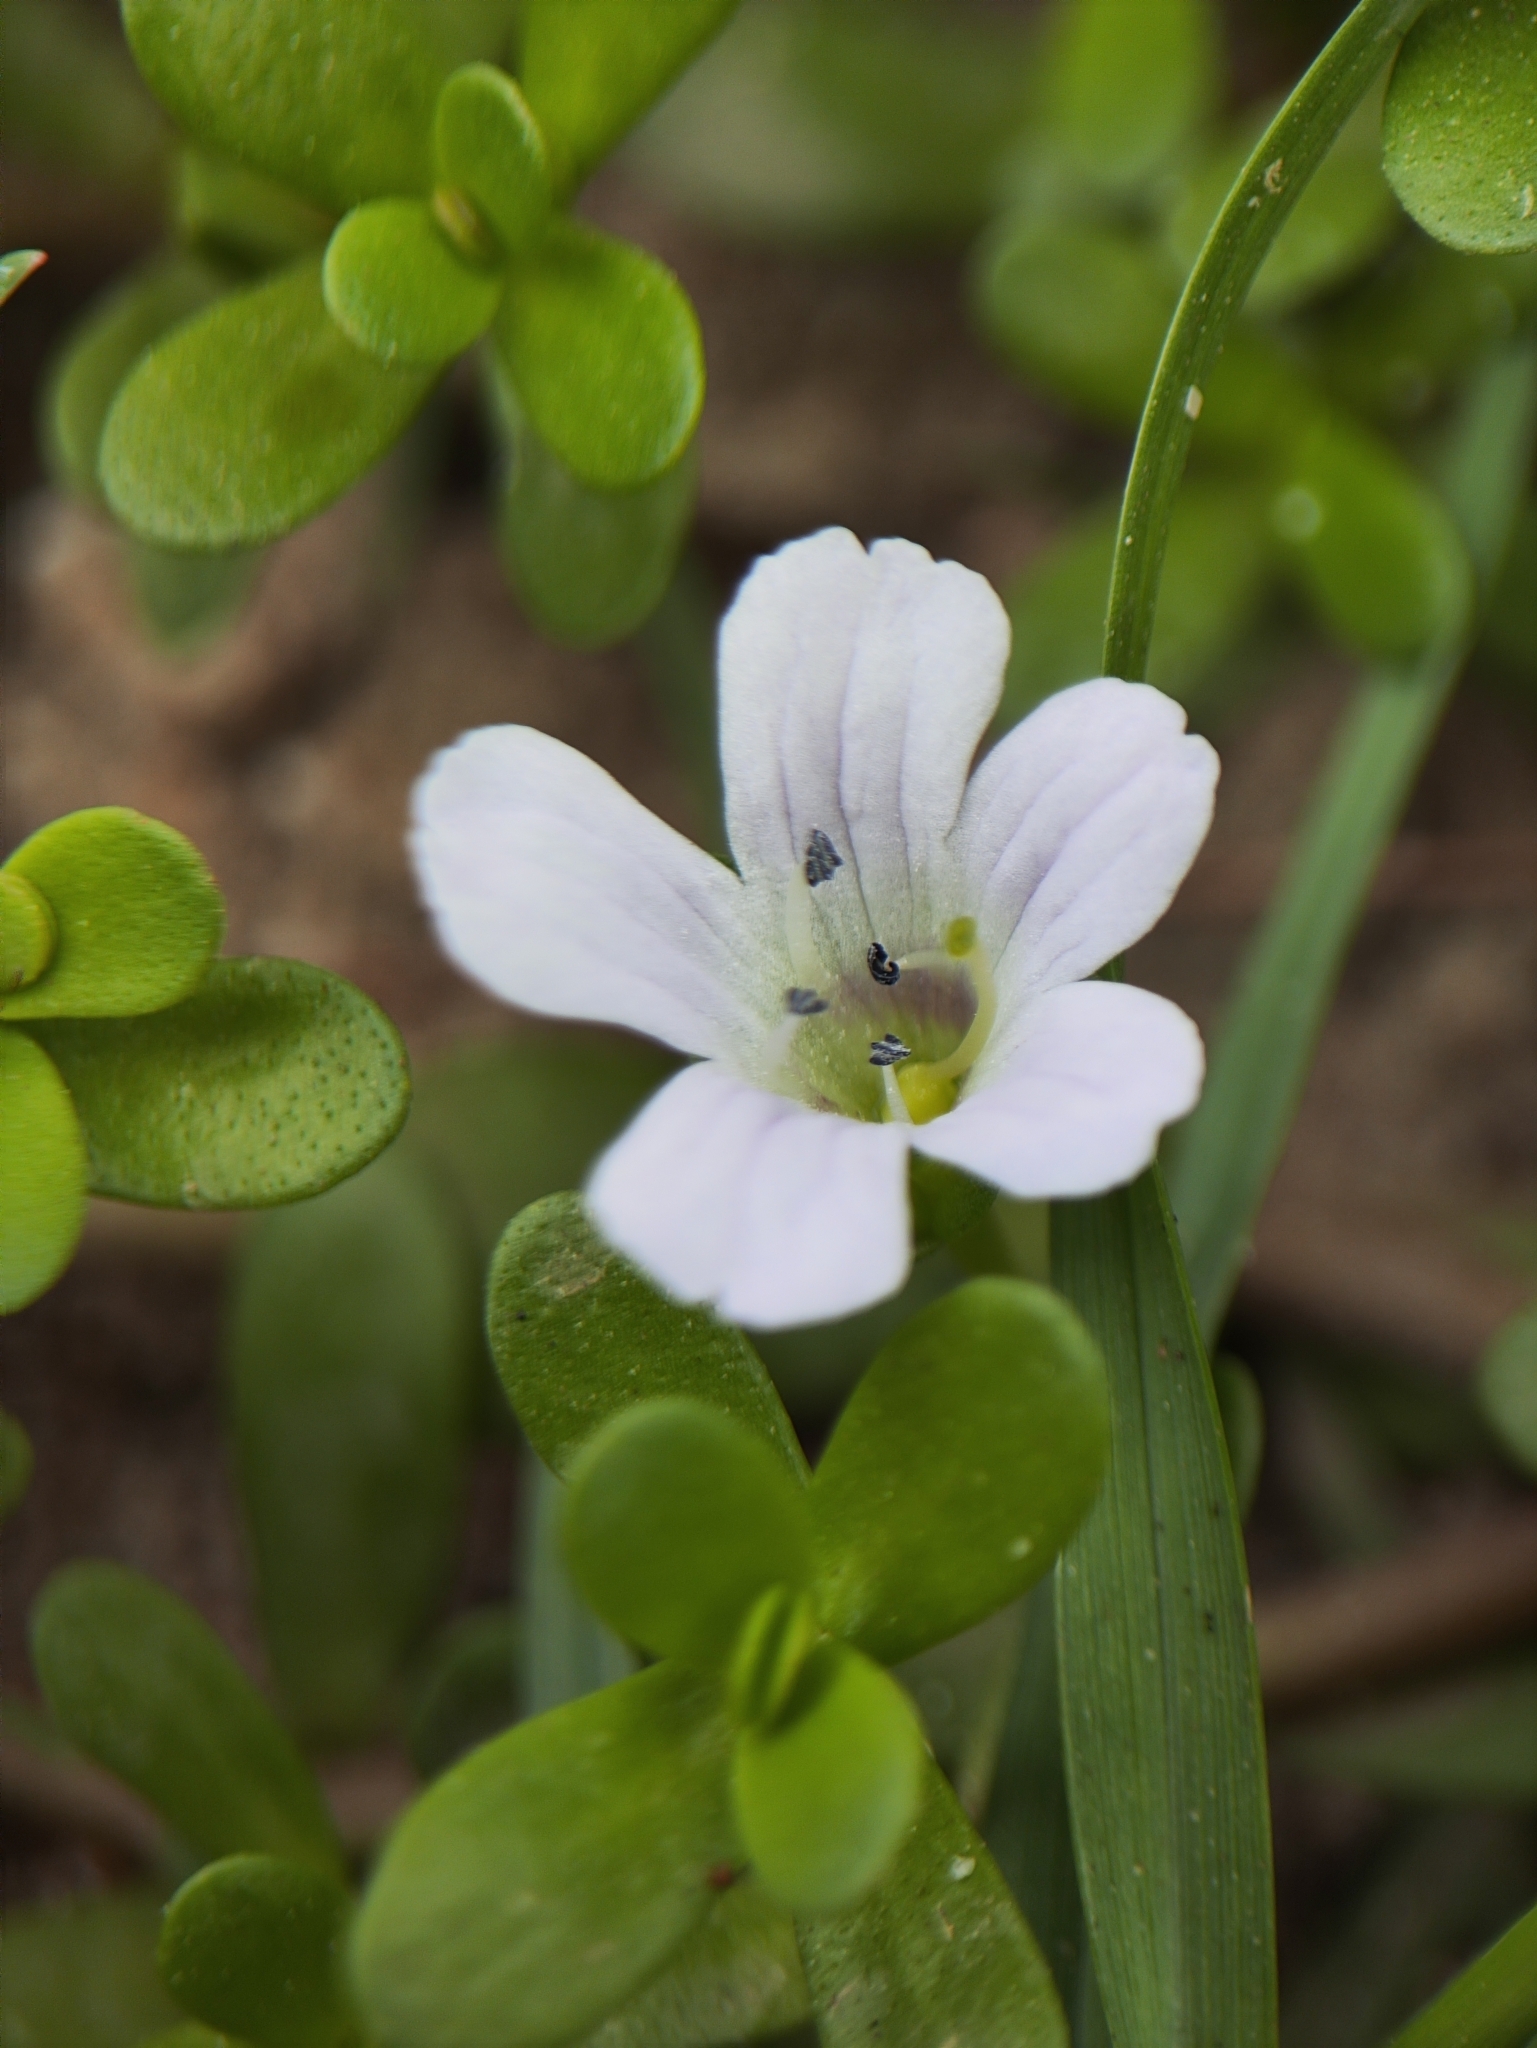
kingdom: Plantae
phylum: Tracheophyta
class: Magnoliopsida
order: Lamiales
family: Plantaginaceae
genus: Bacopa
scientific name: Bacopa monnieri
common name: Indian-pennywort
